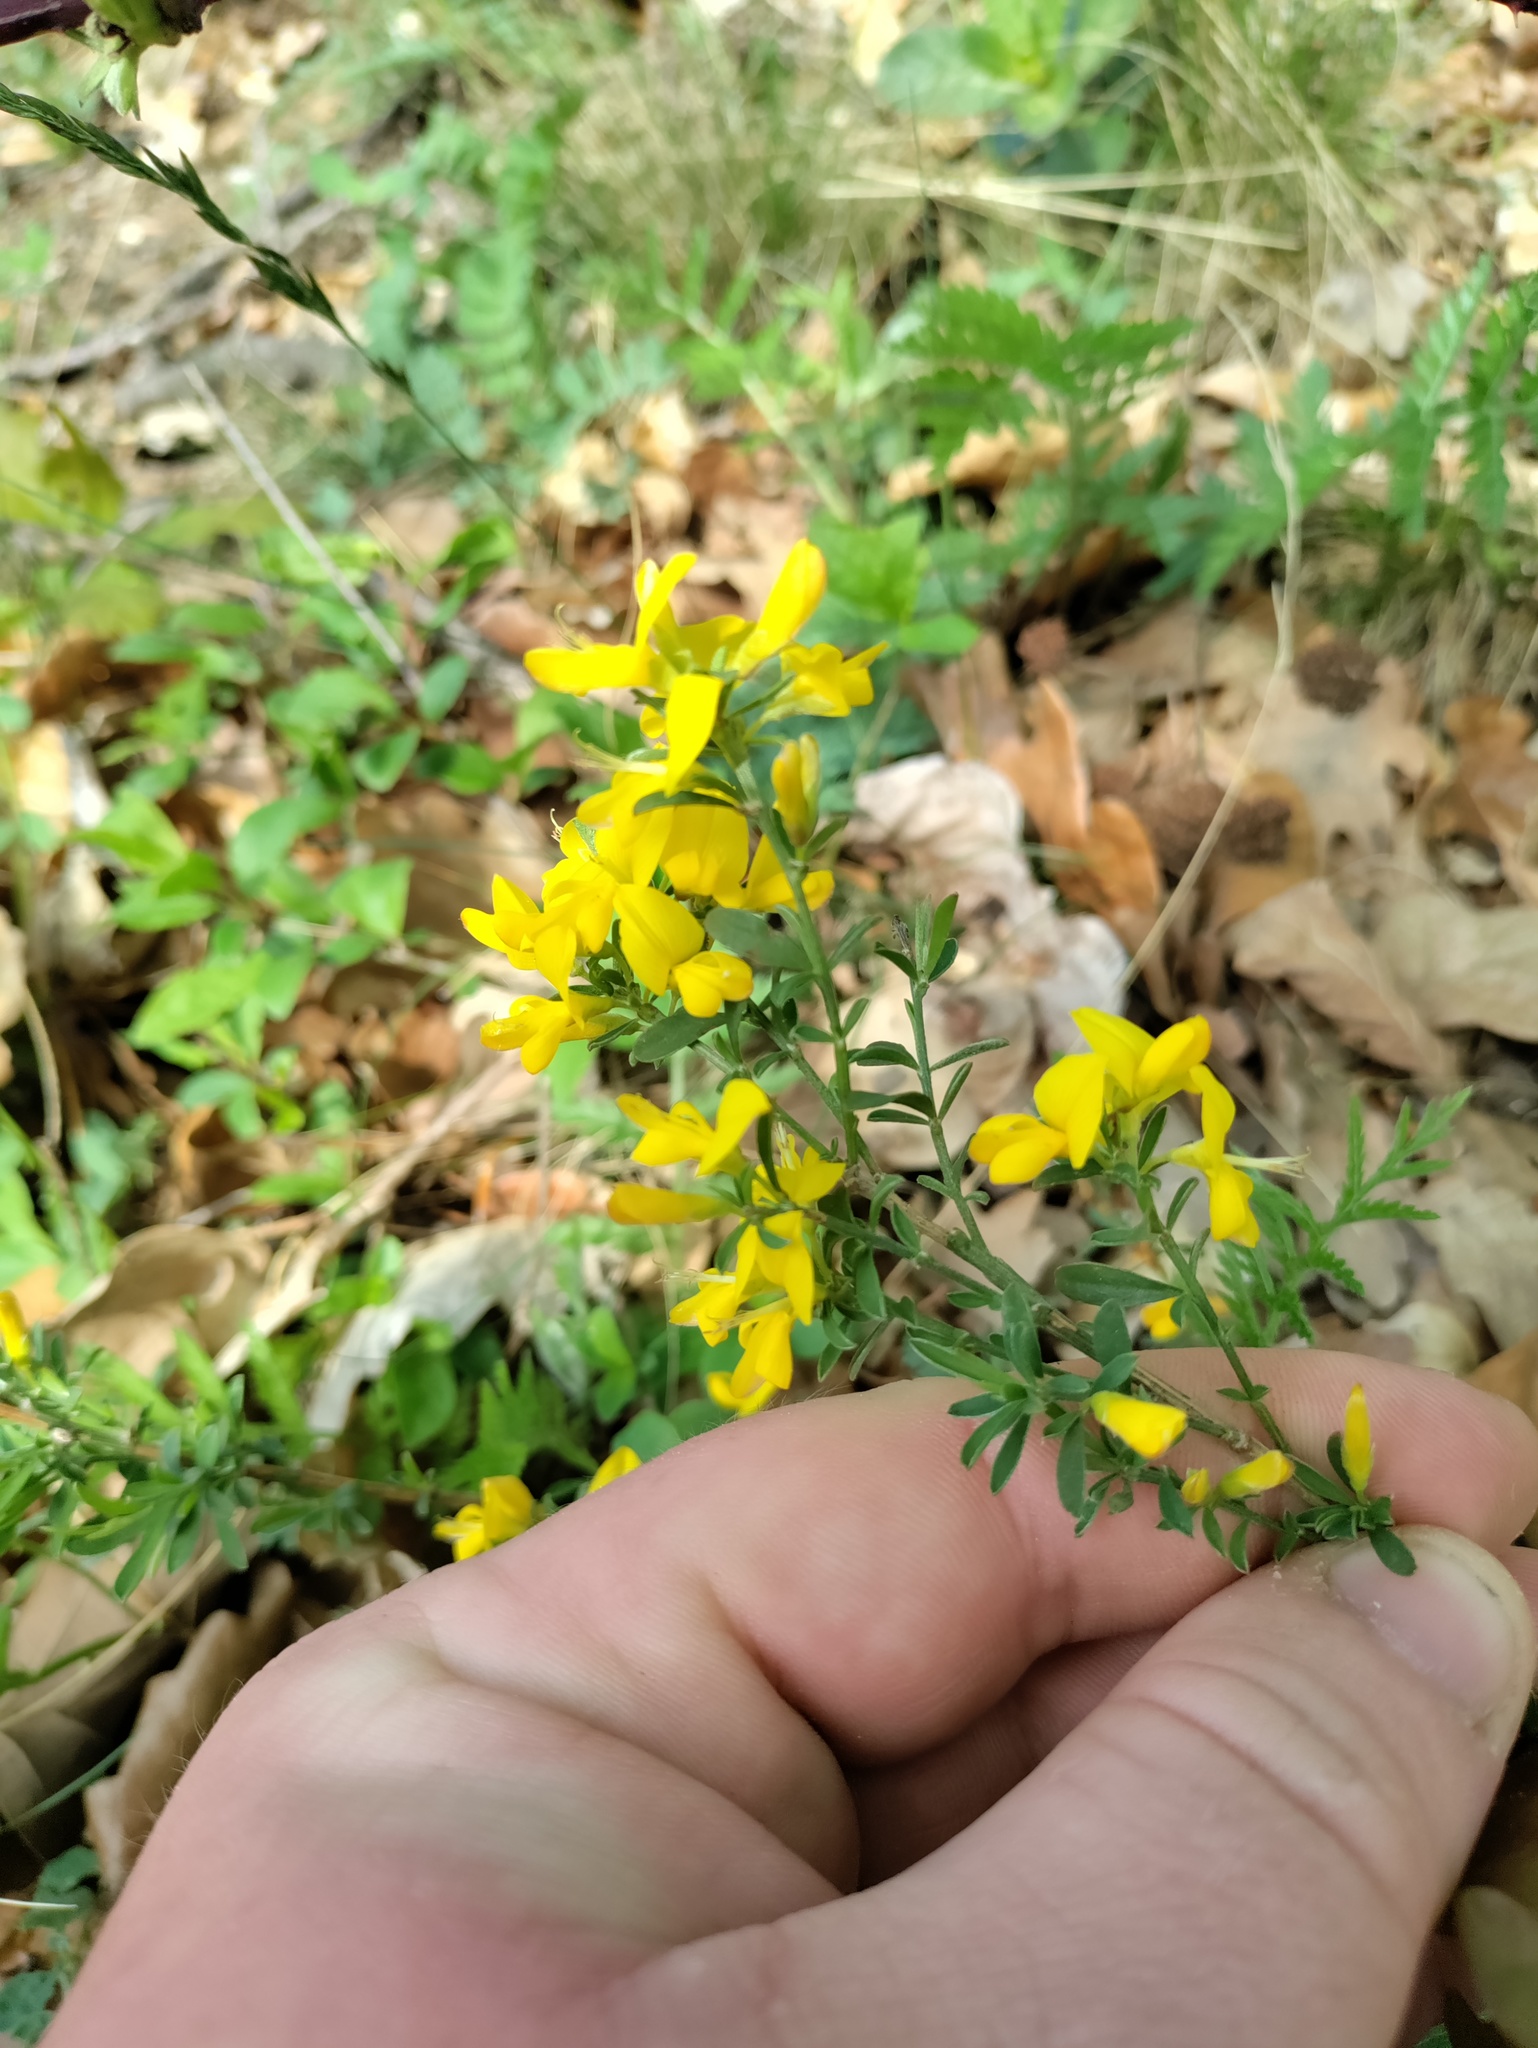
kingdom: Plantae
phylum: Tracheophyta
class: Magnoliopsida
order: Fabales
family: Fabaceae
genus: Genista
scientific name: Genista pilosa
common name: Hairy greenweed
